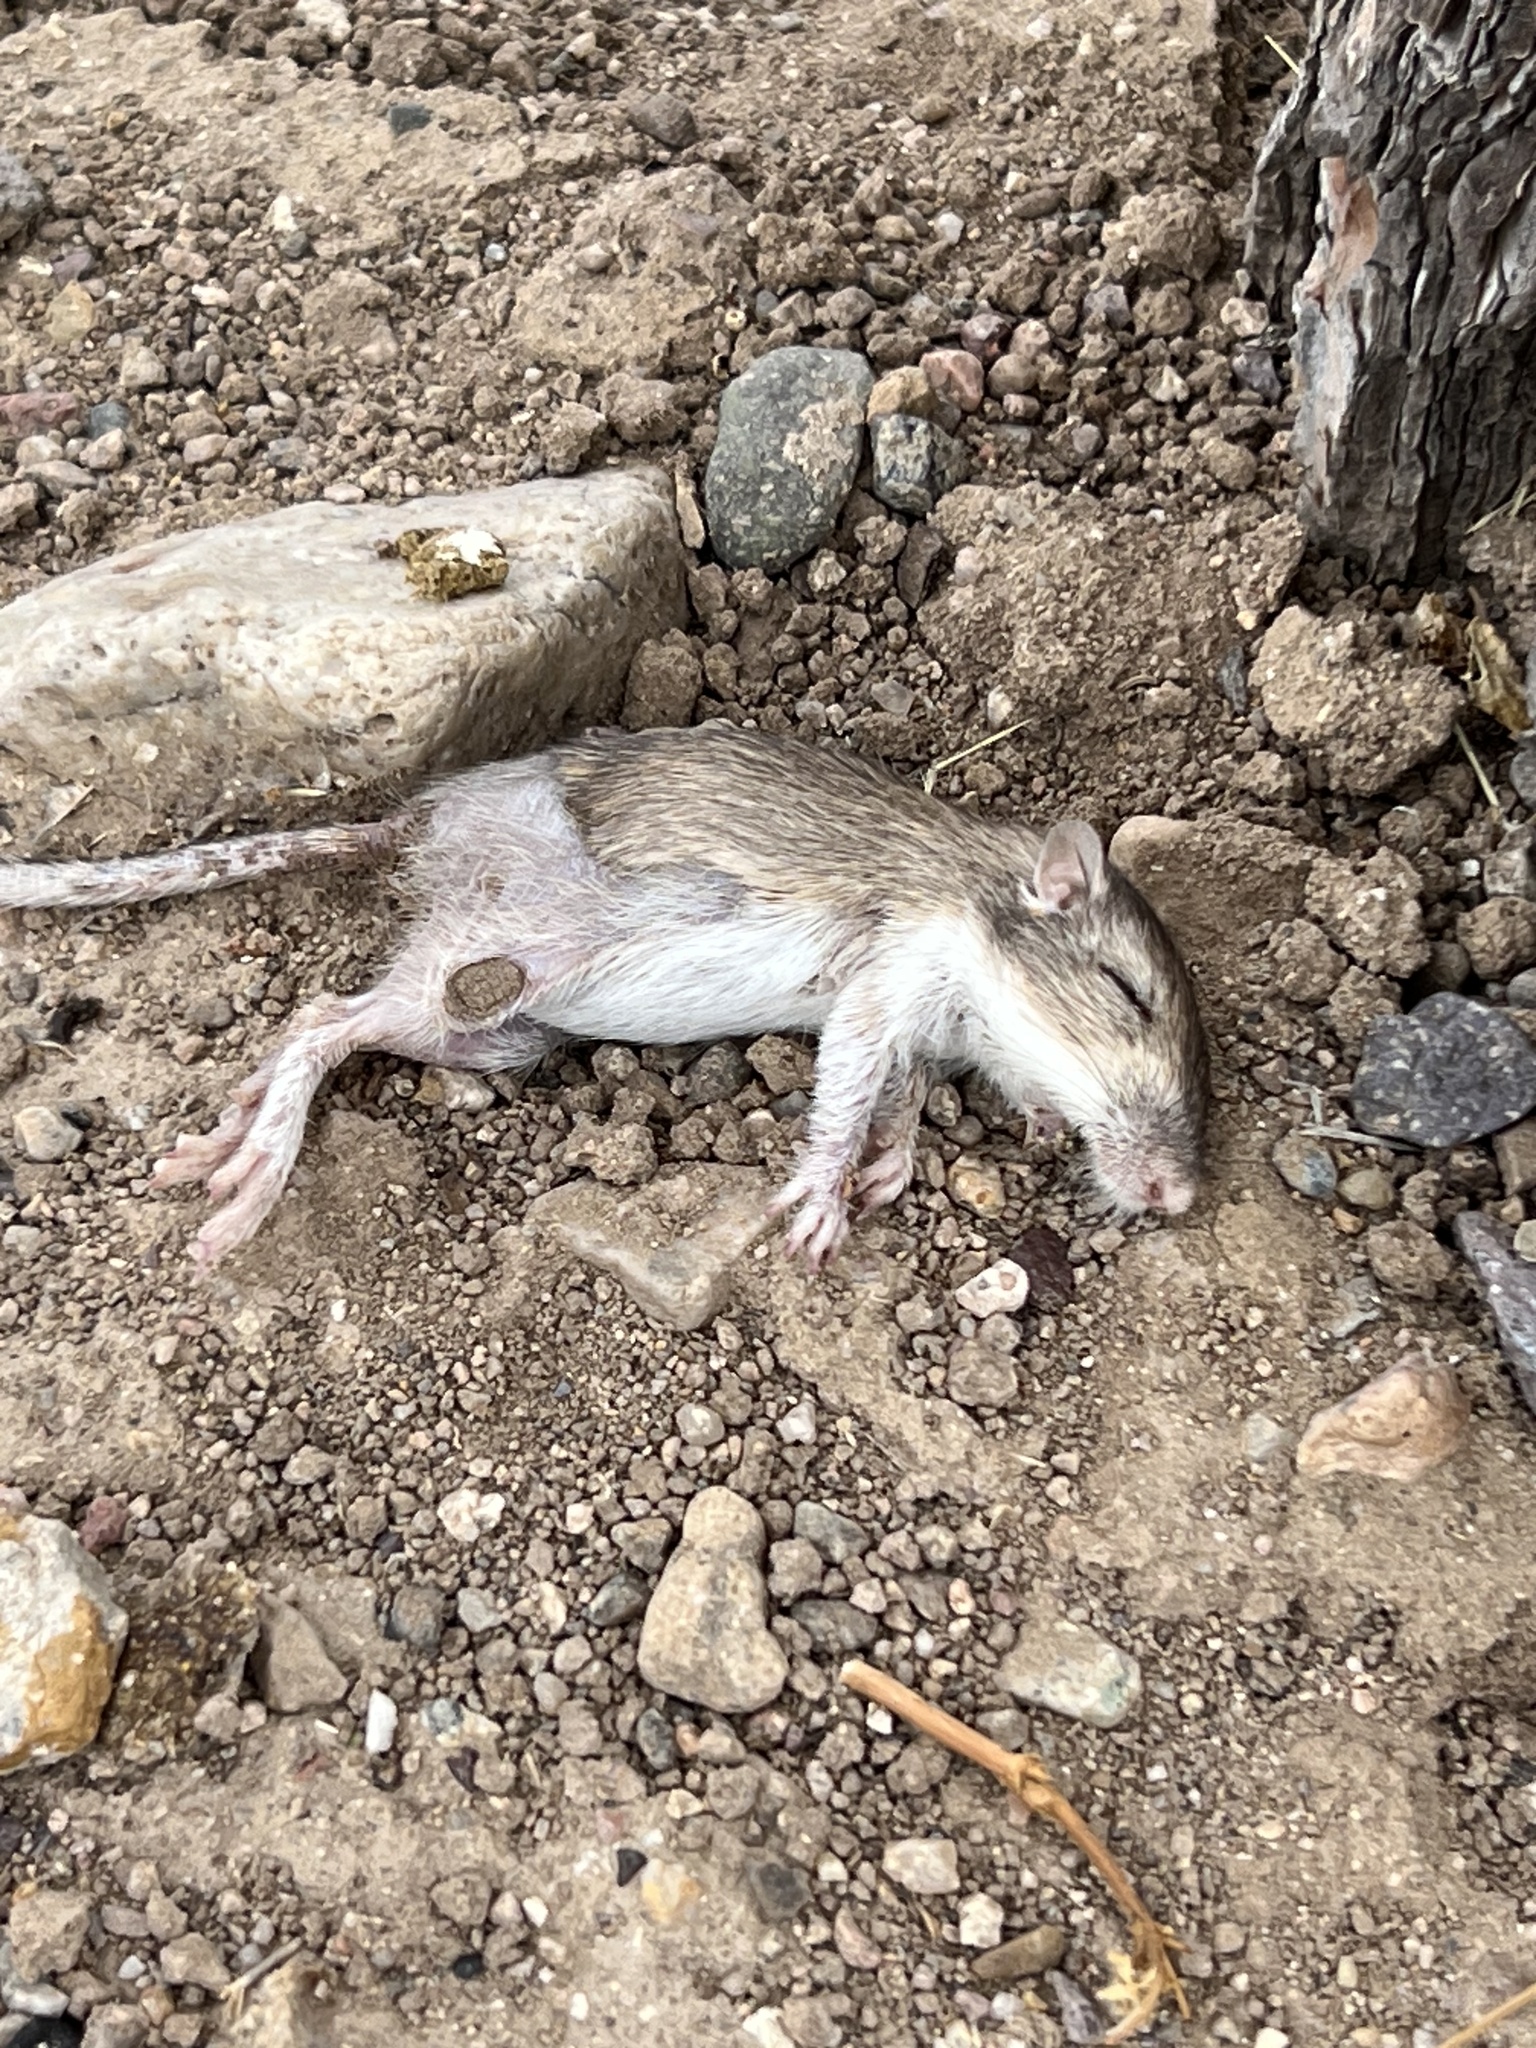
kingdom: Animalia
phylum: Chordata
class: Mammalia
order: Rodentia
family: Heteromyidae
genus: Chaetodipus
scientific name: Chaetodipus penicillatus
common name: Desert pocket mouse
